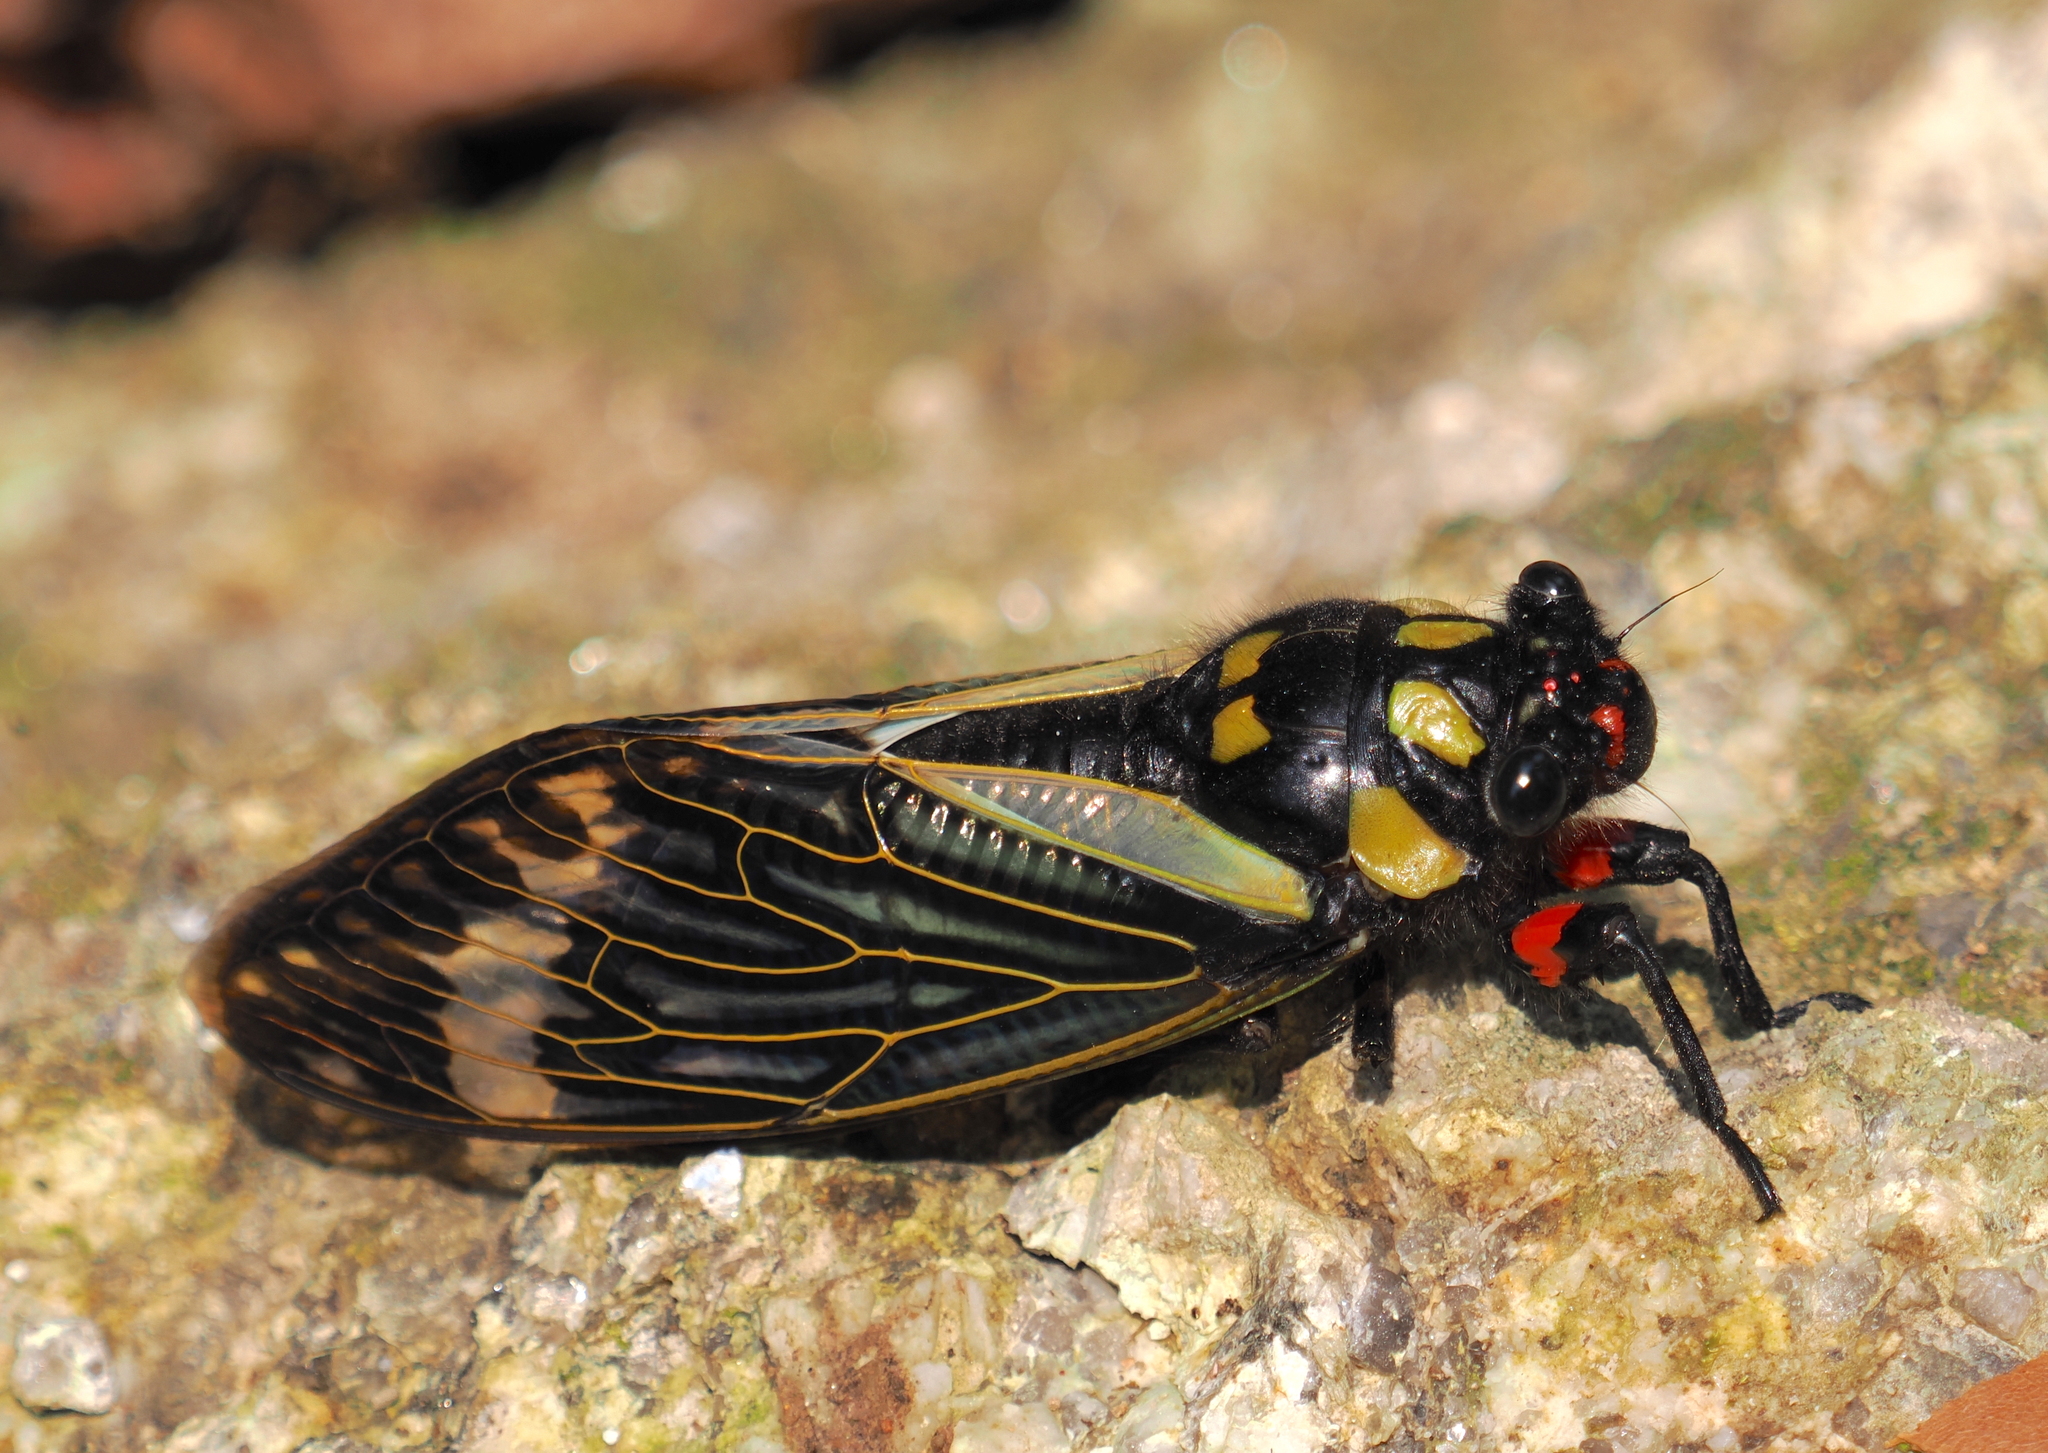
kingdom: Animalia
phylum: Arthropoda
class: Insecta
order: Hemiptera
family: Cicadidae
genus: Distantalna
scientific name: Distantalna splendida
